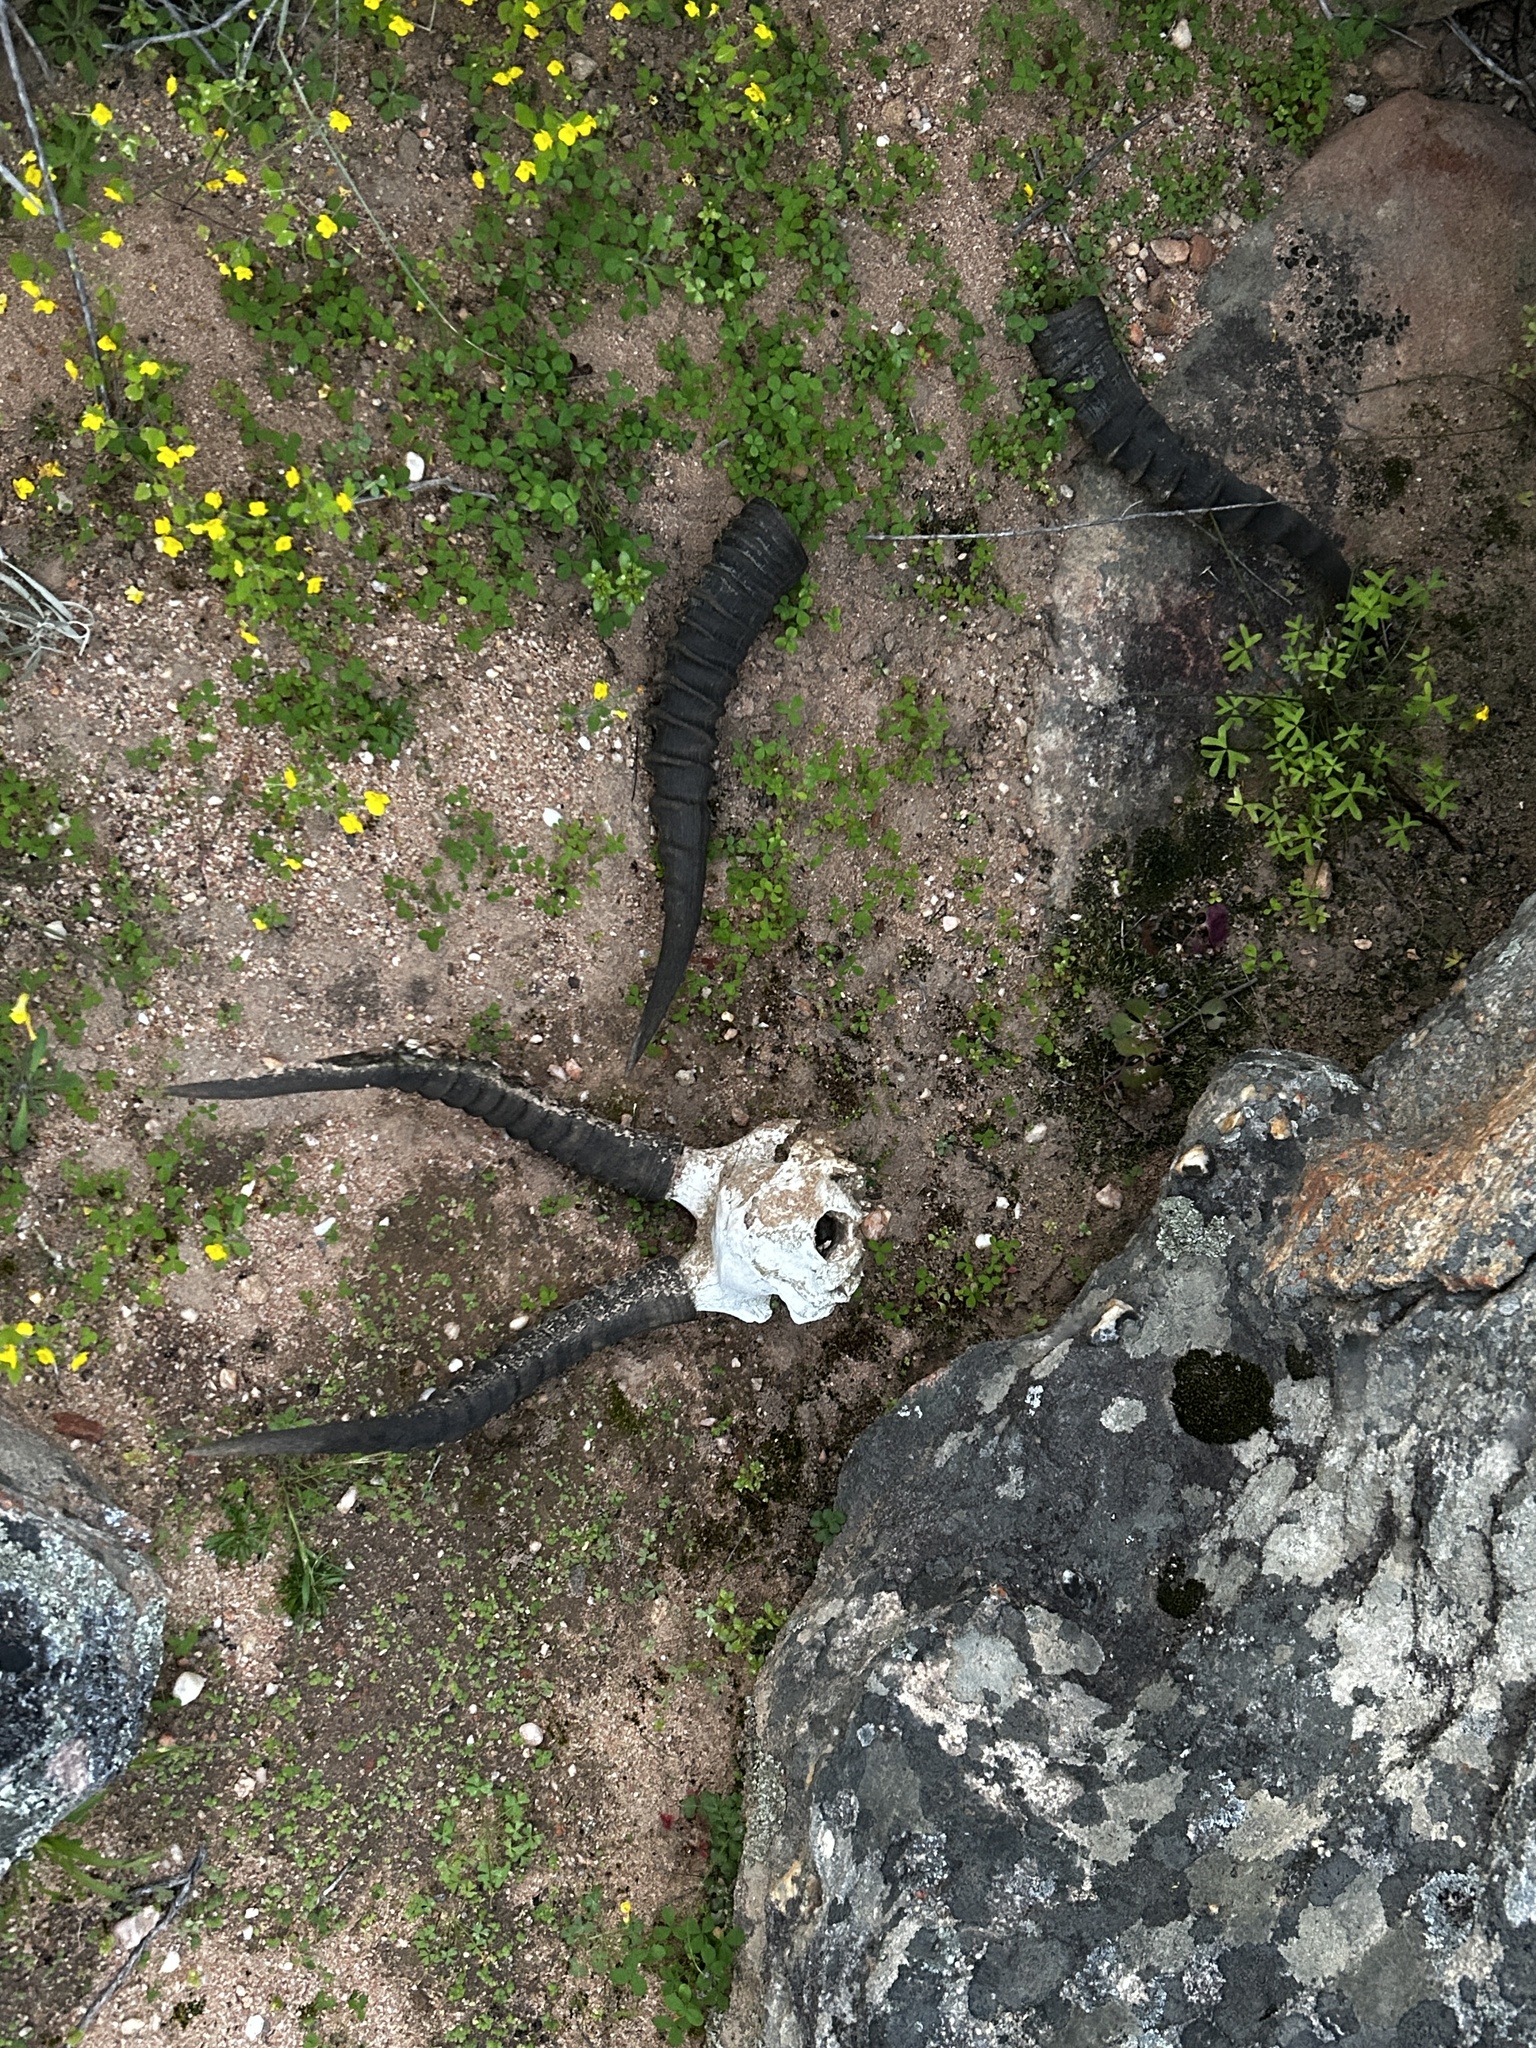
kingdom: Animalia
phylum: Chordata
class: Mammalia
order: Artiodactyla
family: Bovidae
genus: Antidorcas
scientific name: Antidorcas marsupialis
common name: Springbok
